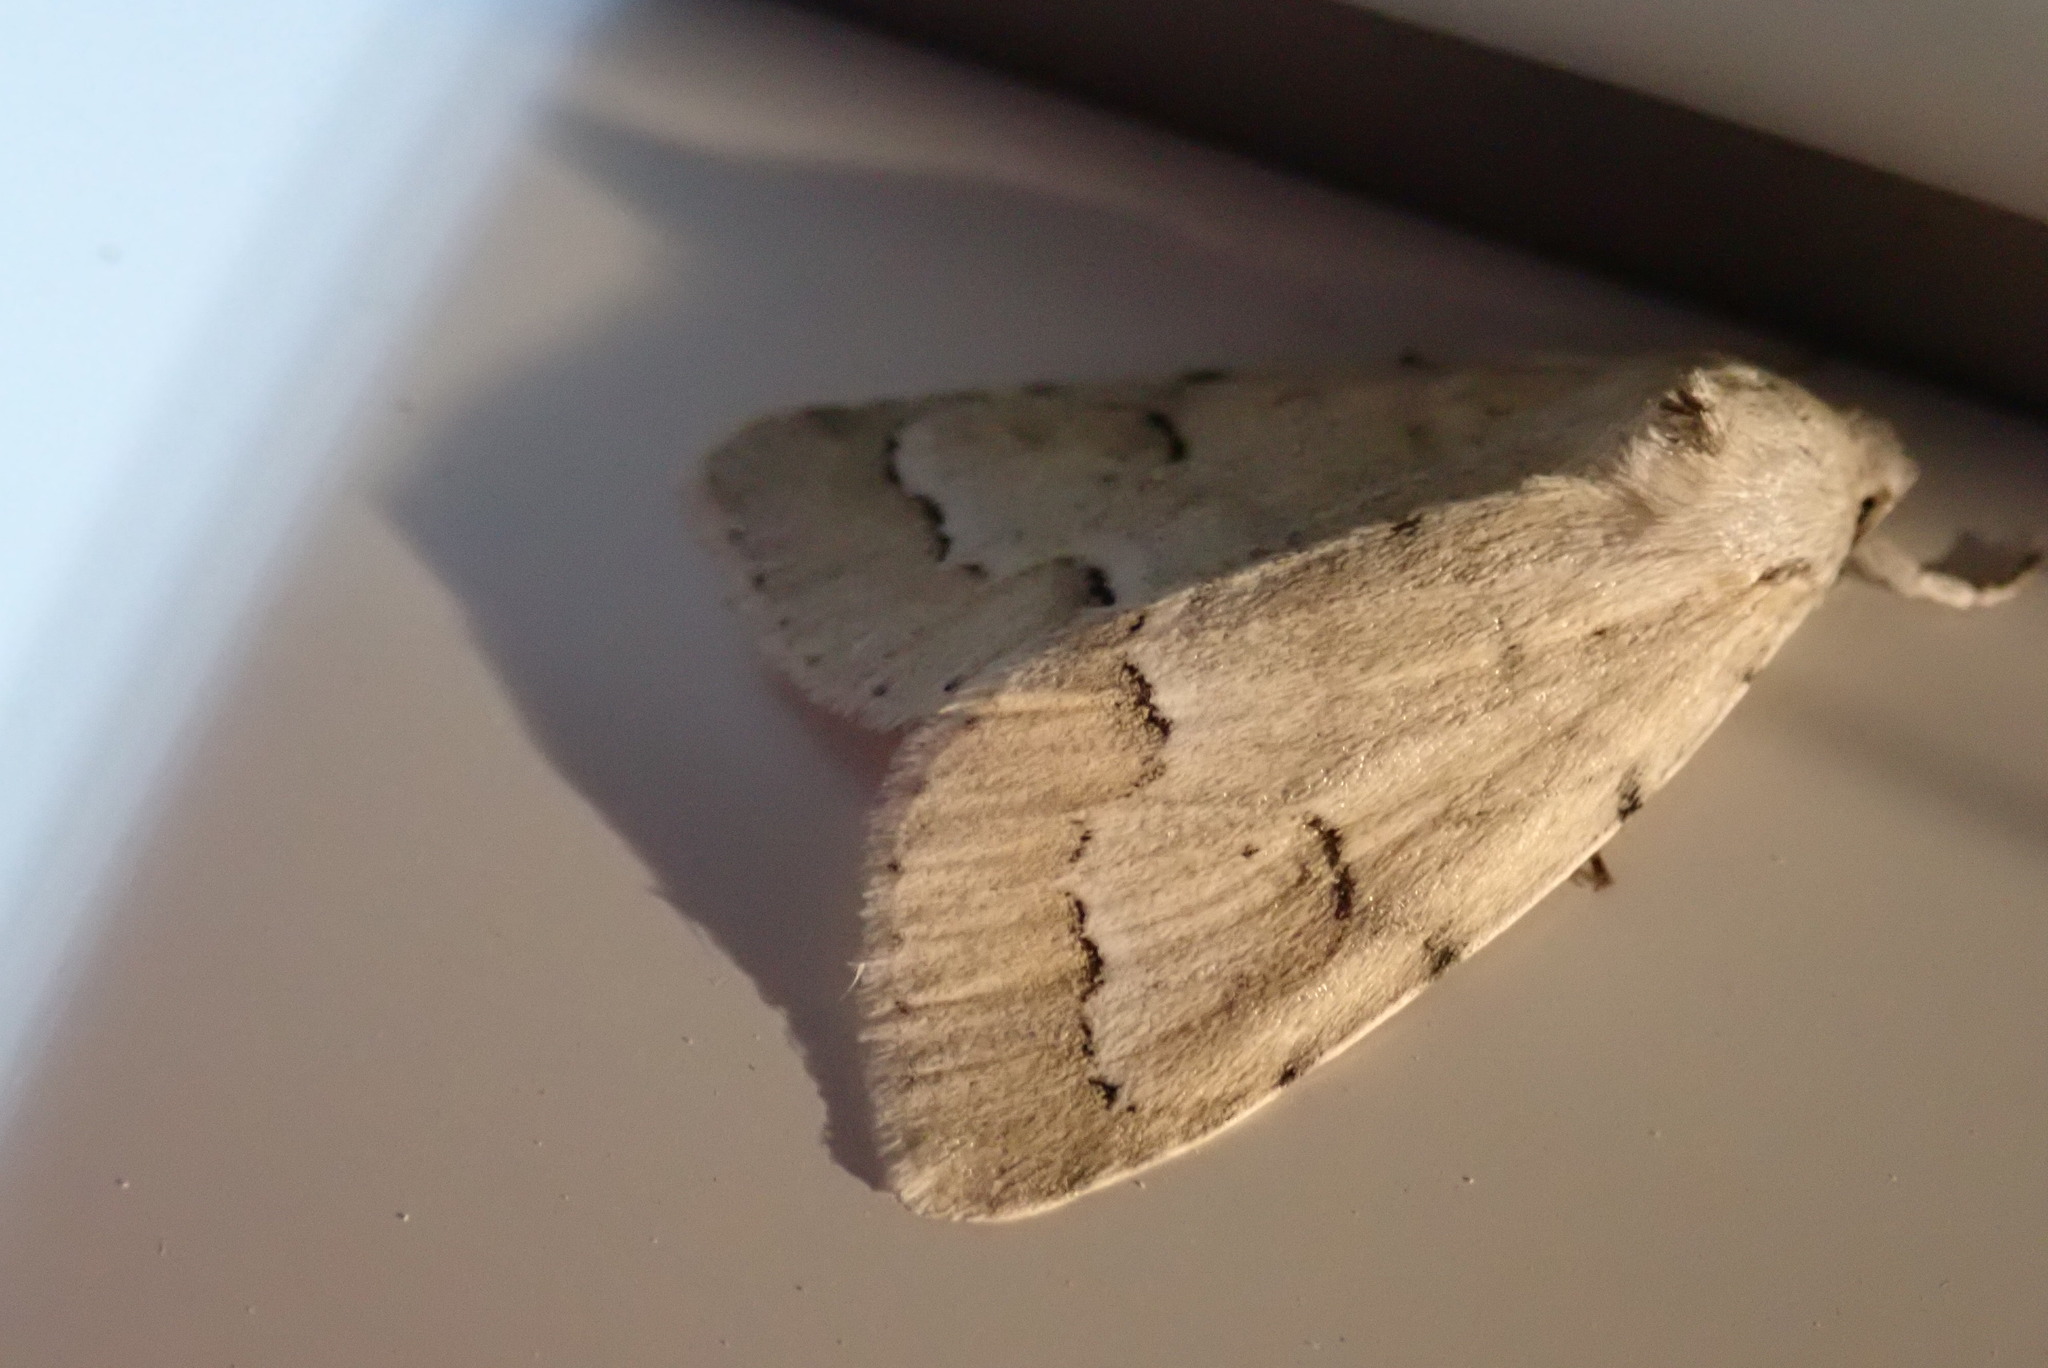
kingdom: Animalia
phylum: Arthropoda
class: Insecta
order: Lepidoptera
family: Noctuidae
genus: Acronicta
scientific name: Acronicta innotata
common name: Unmarked dagger
